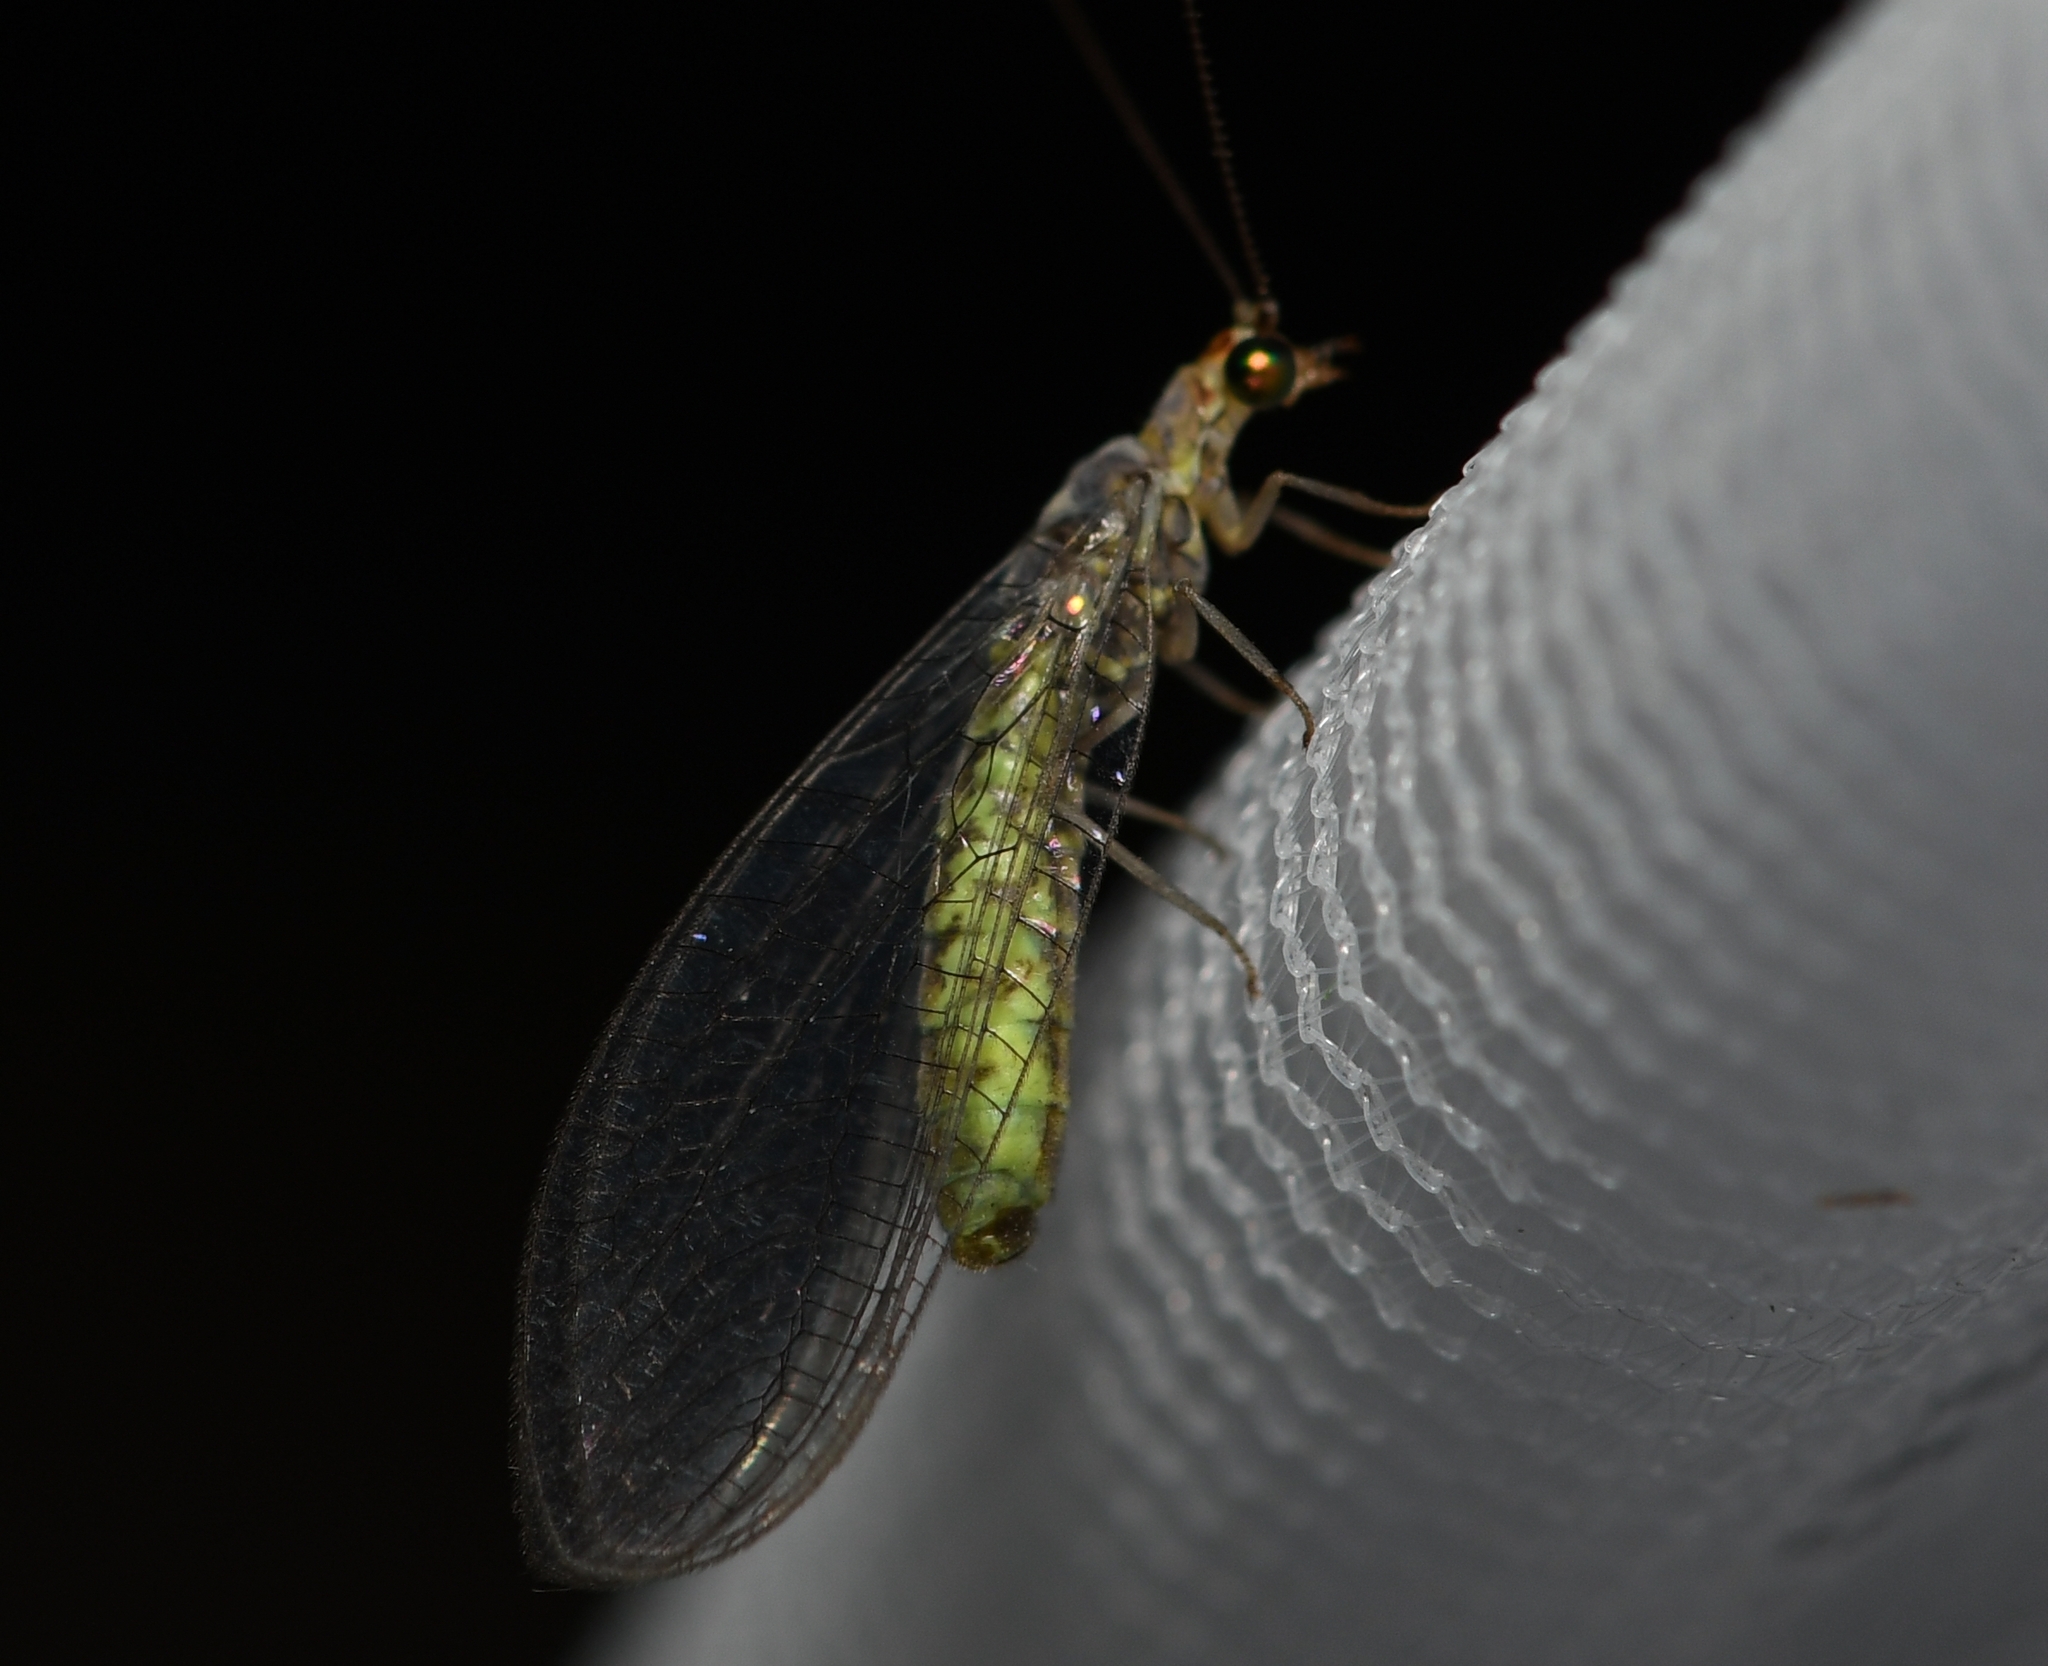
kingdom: Animalia
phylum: Arthropoda
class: Insecta
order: Neuroptera
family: Chrysopidae
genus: Yumachrysa
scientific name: Yumachrysa apache
